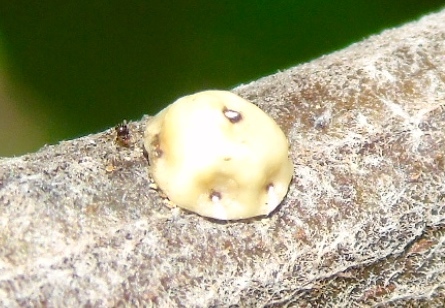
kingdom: Animalia
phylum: Arthropoda
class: Insecta
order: Hemiptera
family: Coccidae
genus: Ceroplastes
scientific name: Ceroplastes cirripediformis
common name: Barnacle scale
